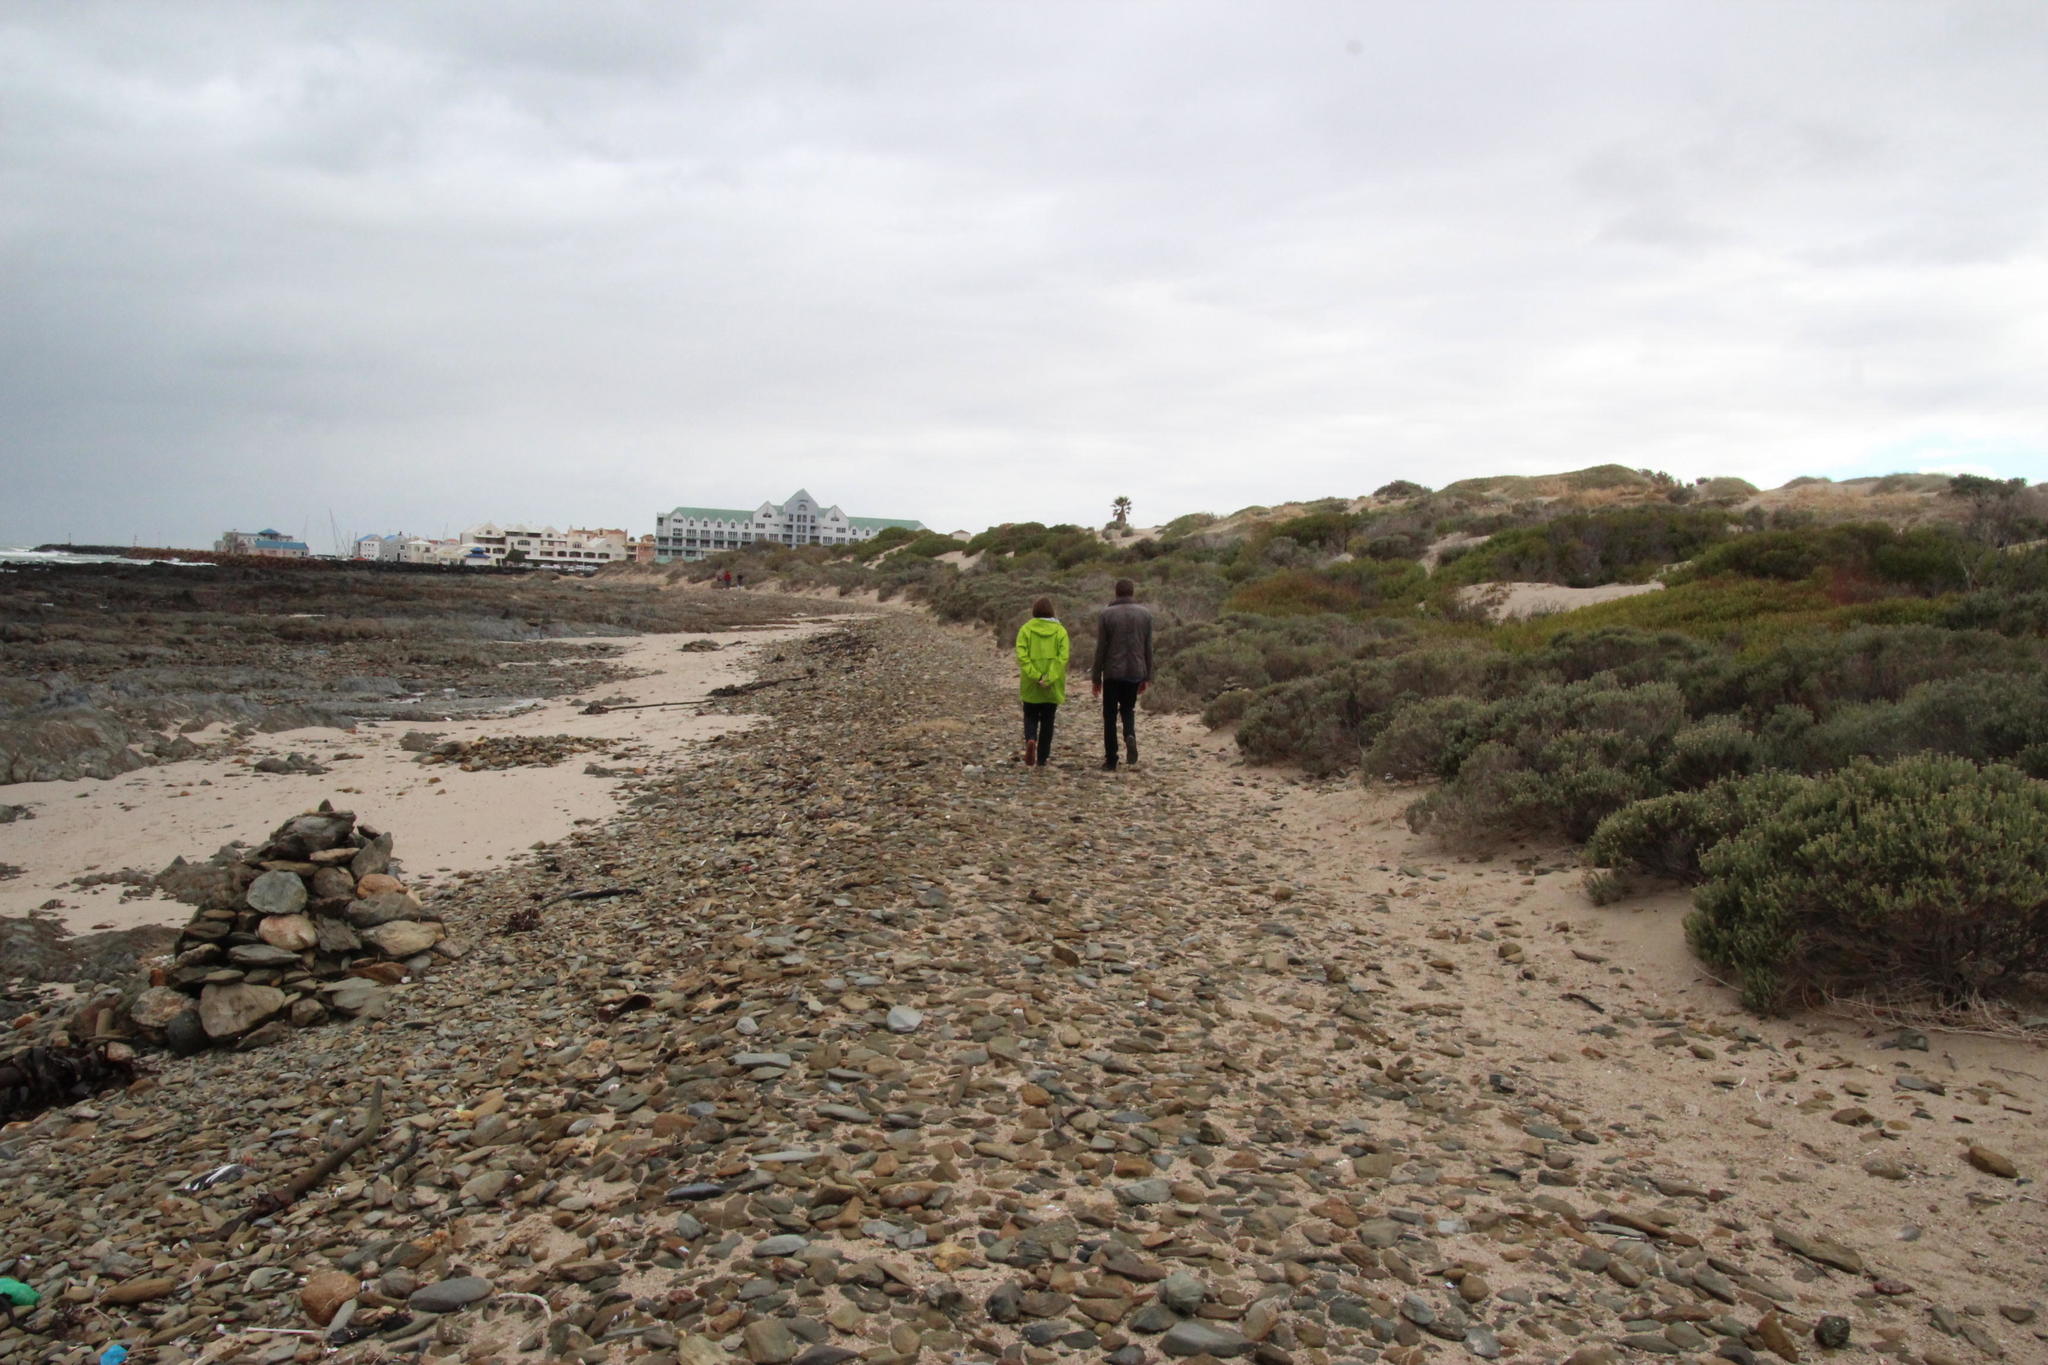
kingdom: Plantae
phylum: Tracheophyta
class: Magnoliopsida
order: Asterales
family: Asteraceae
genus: Metalasia
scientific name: Metalasia muricata
